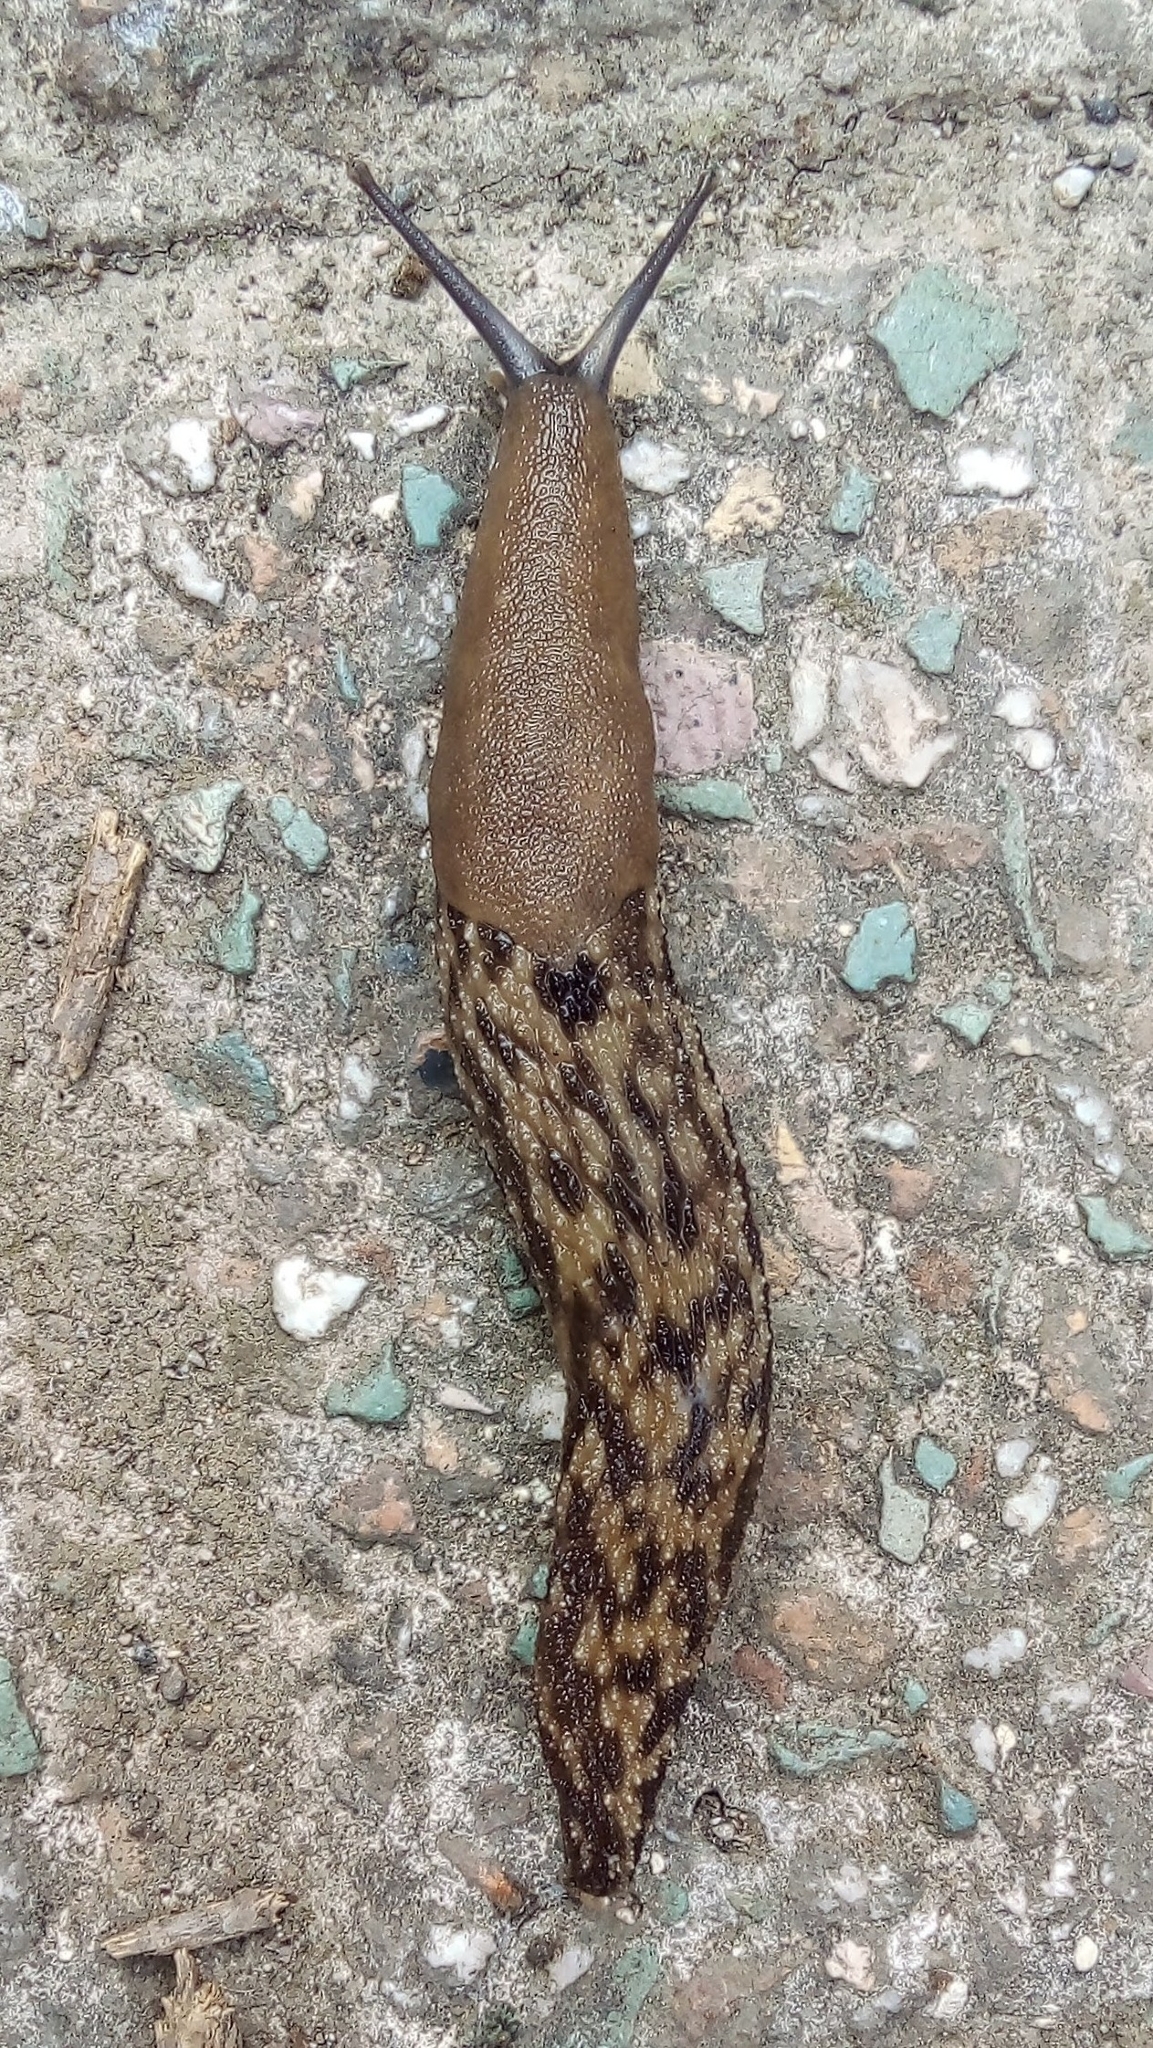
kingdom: Animalia
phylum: Mollusca
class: Gastropoda
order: Stylommatophora
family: Limacidae
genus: Caspilimax
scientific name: Caspilimax keyserlingi
